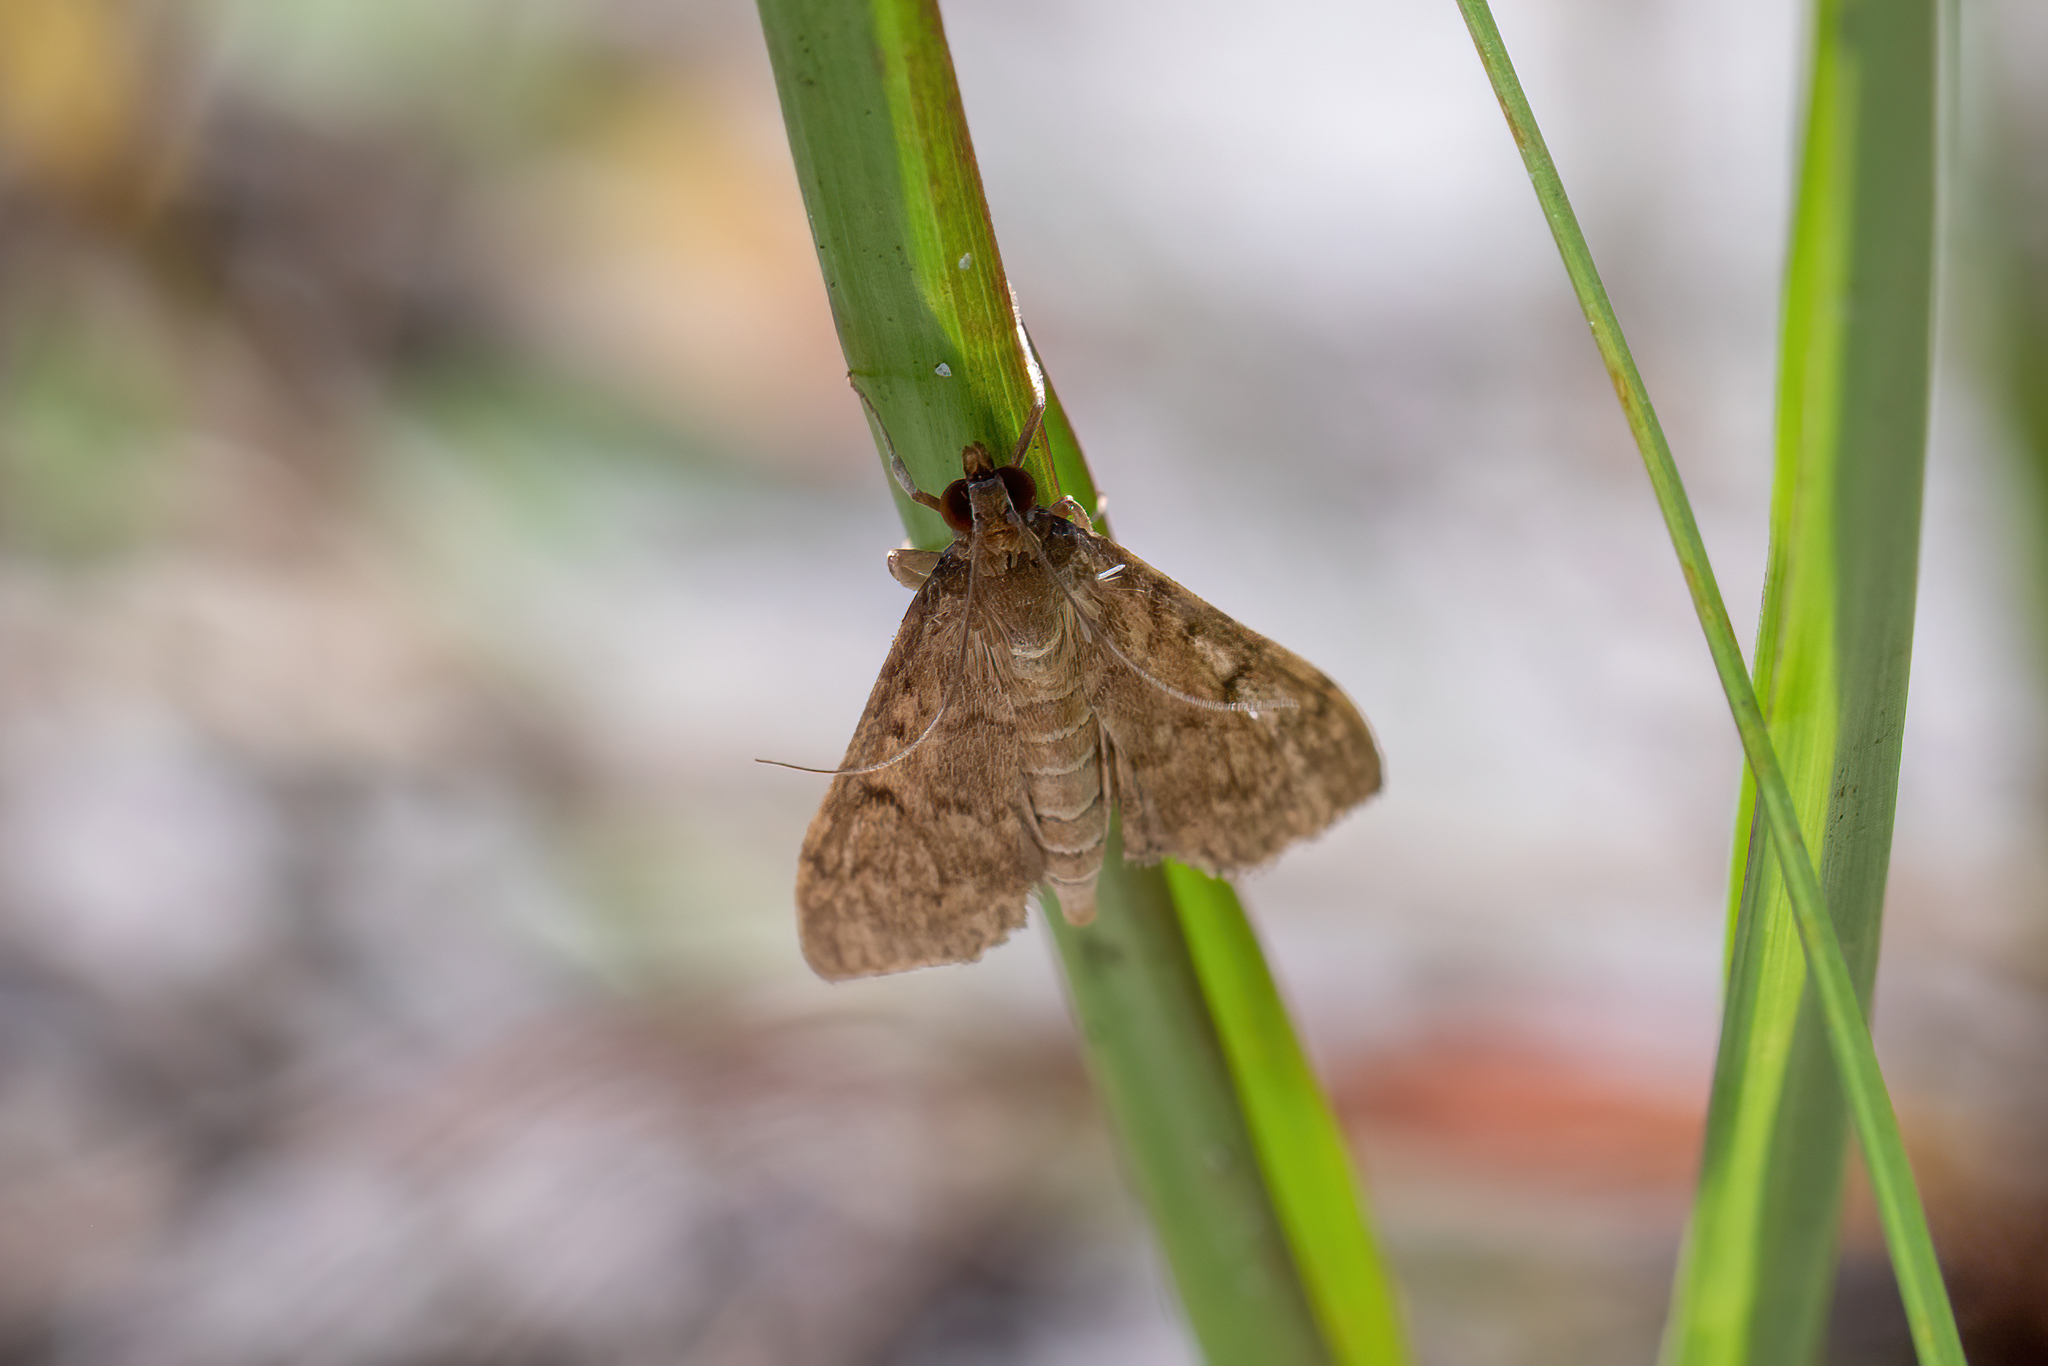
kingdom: Animalia
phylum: Arthropoda
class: Insecta
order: Lepidoptera
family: Crambidae
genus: Herpetogramma
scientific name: Herpetogramma phaeopteralis
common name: Dusky herpetogramma moth
